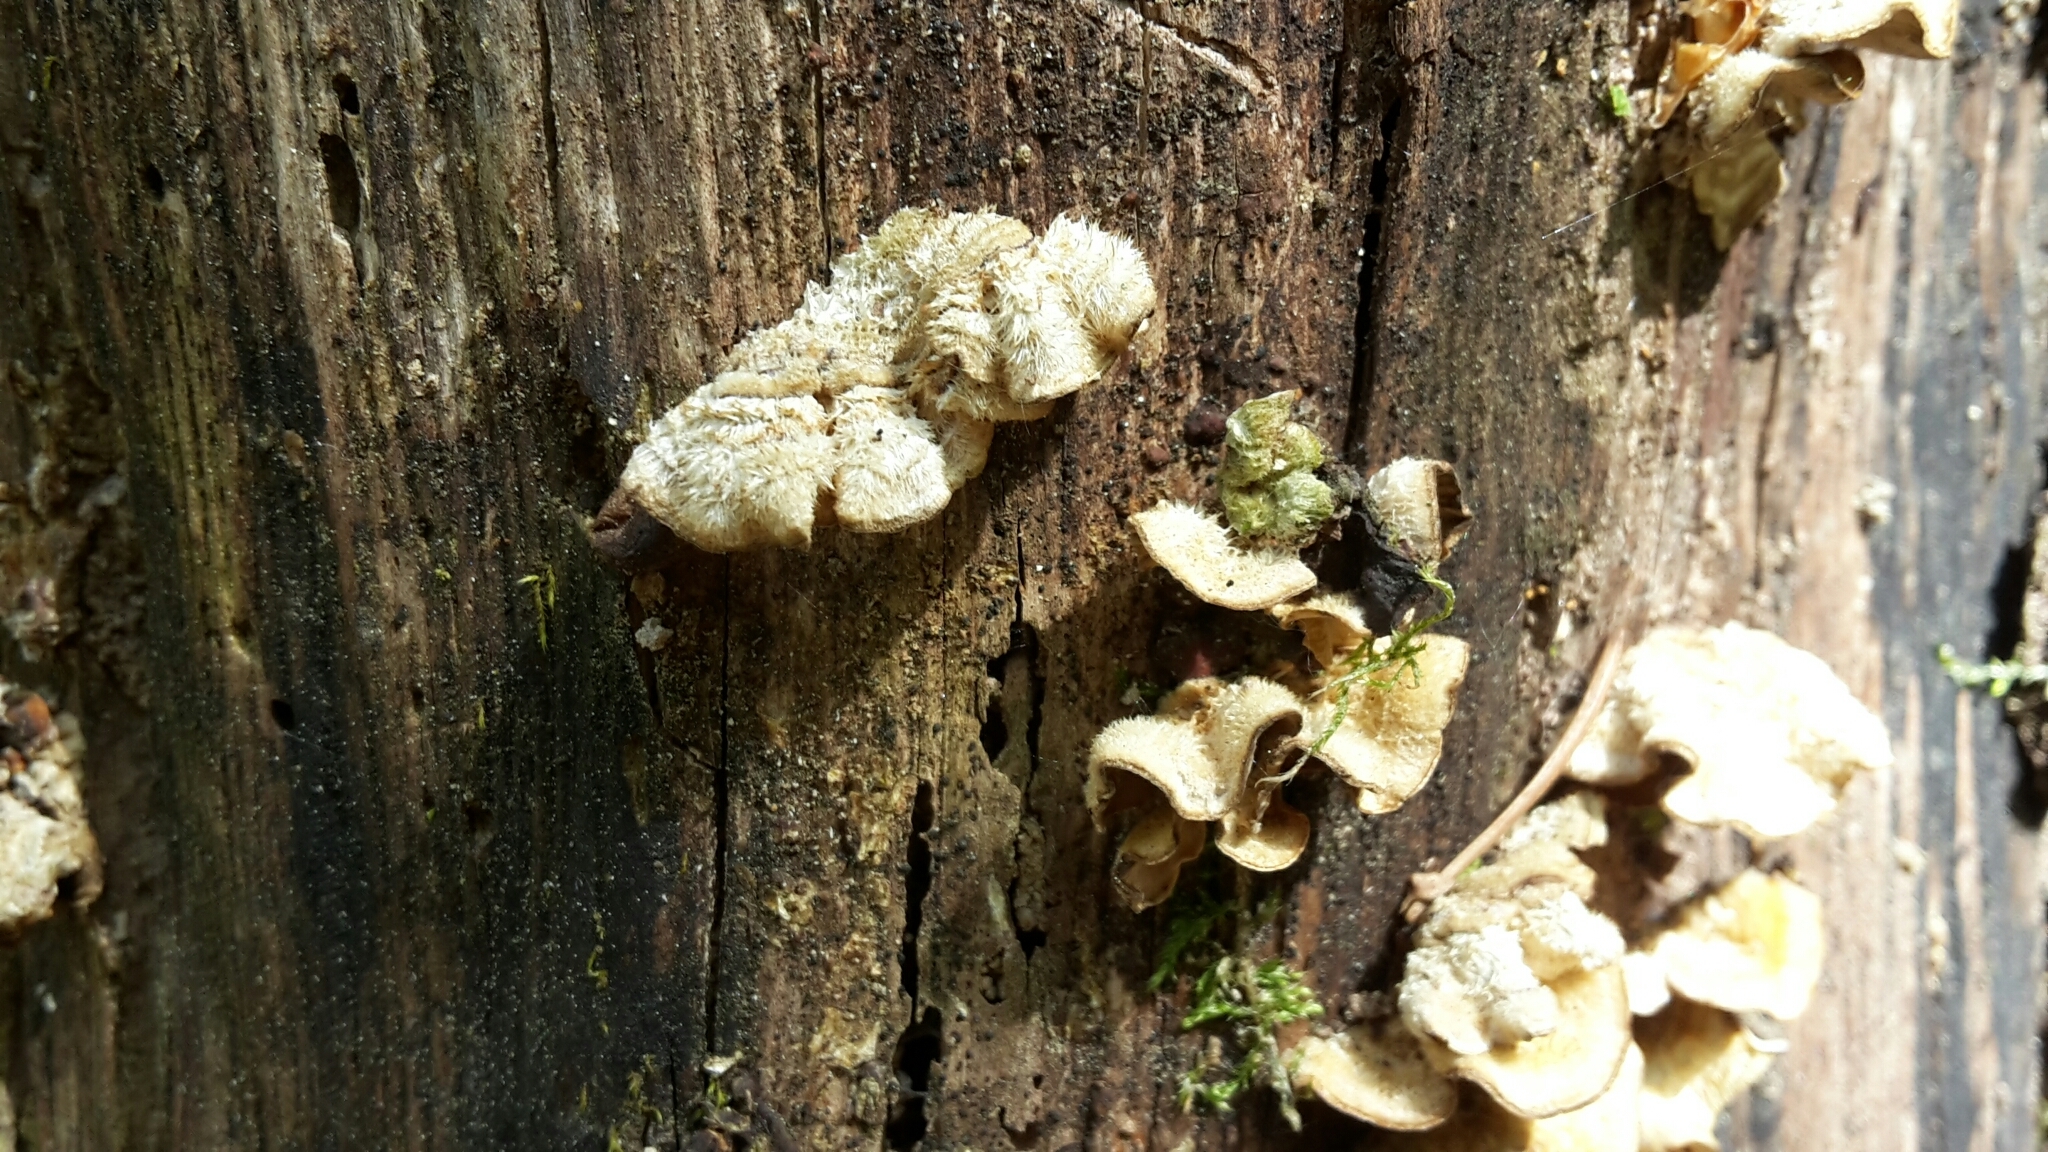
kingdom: Fungi
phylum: Basidiomycota
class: Agaricomycetes
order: Russulales
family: Stereaceae
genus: Stereum
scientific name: Stereum hirsutum
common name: Hairy curtain crust
